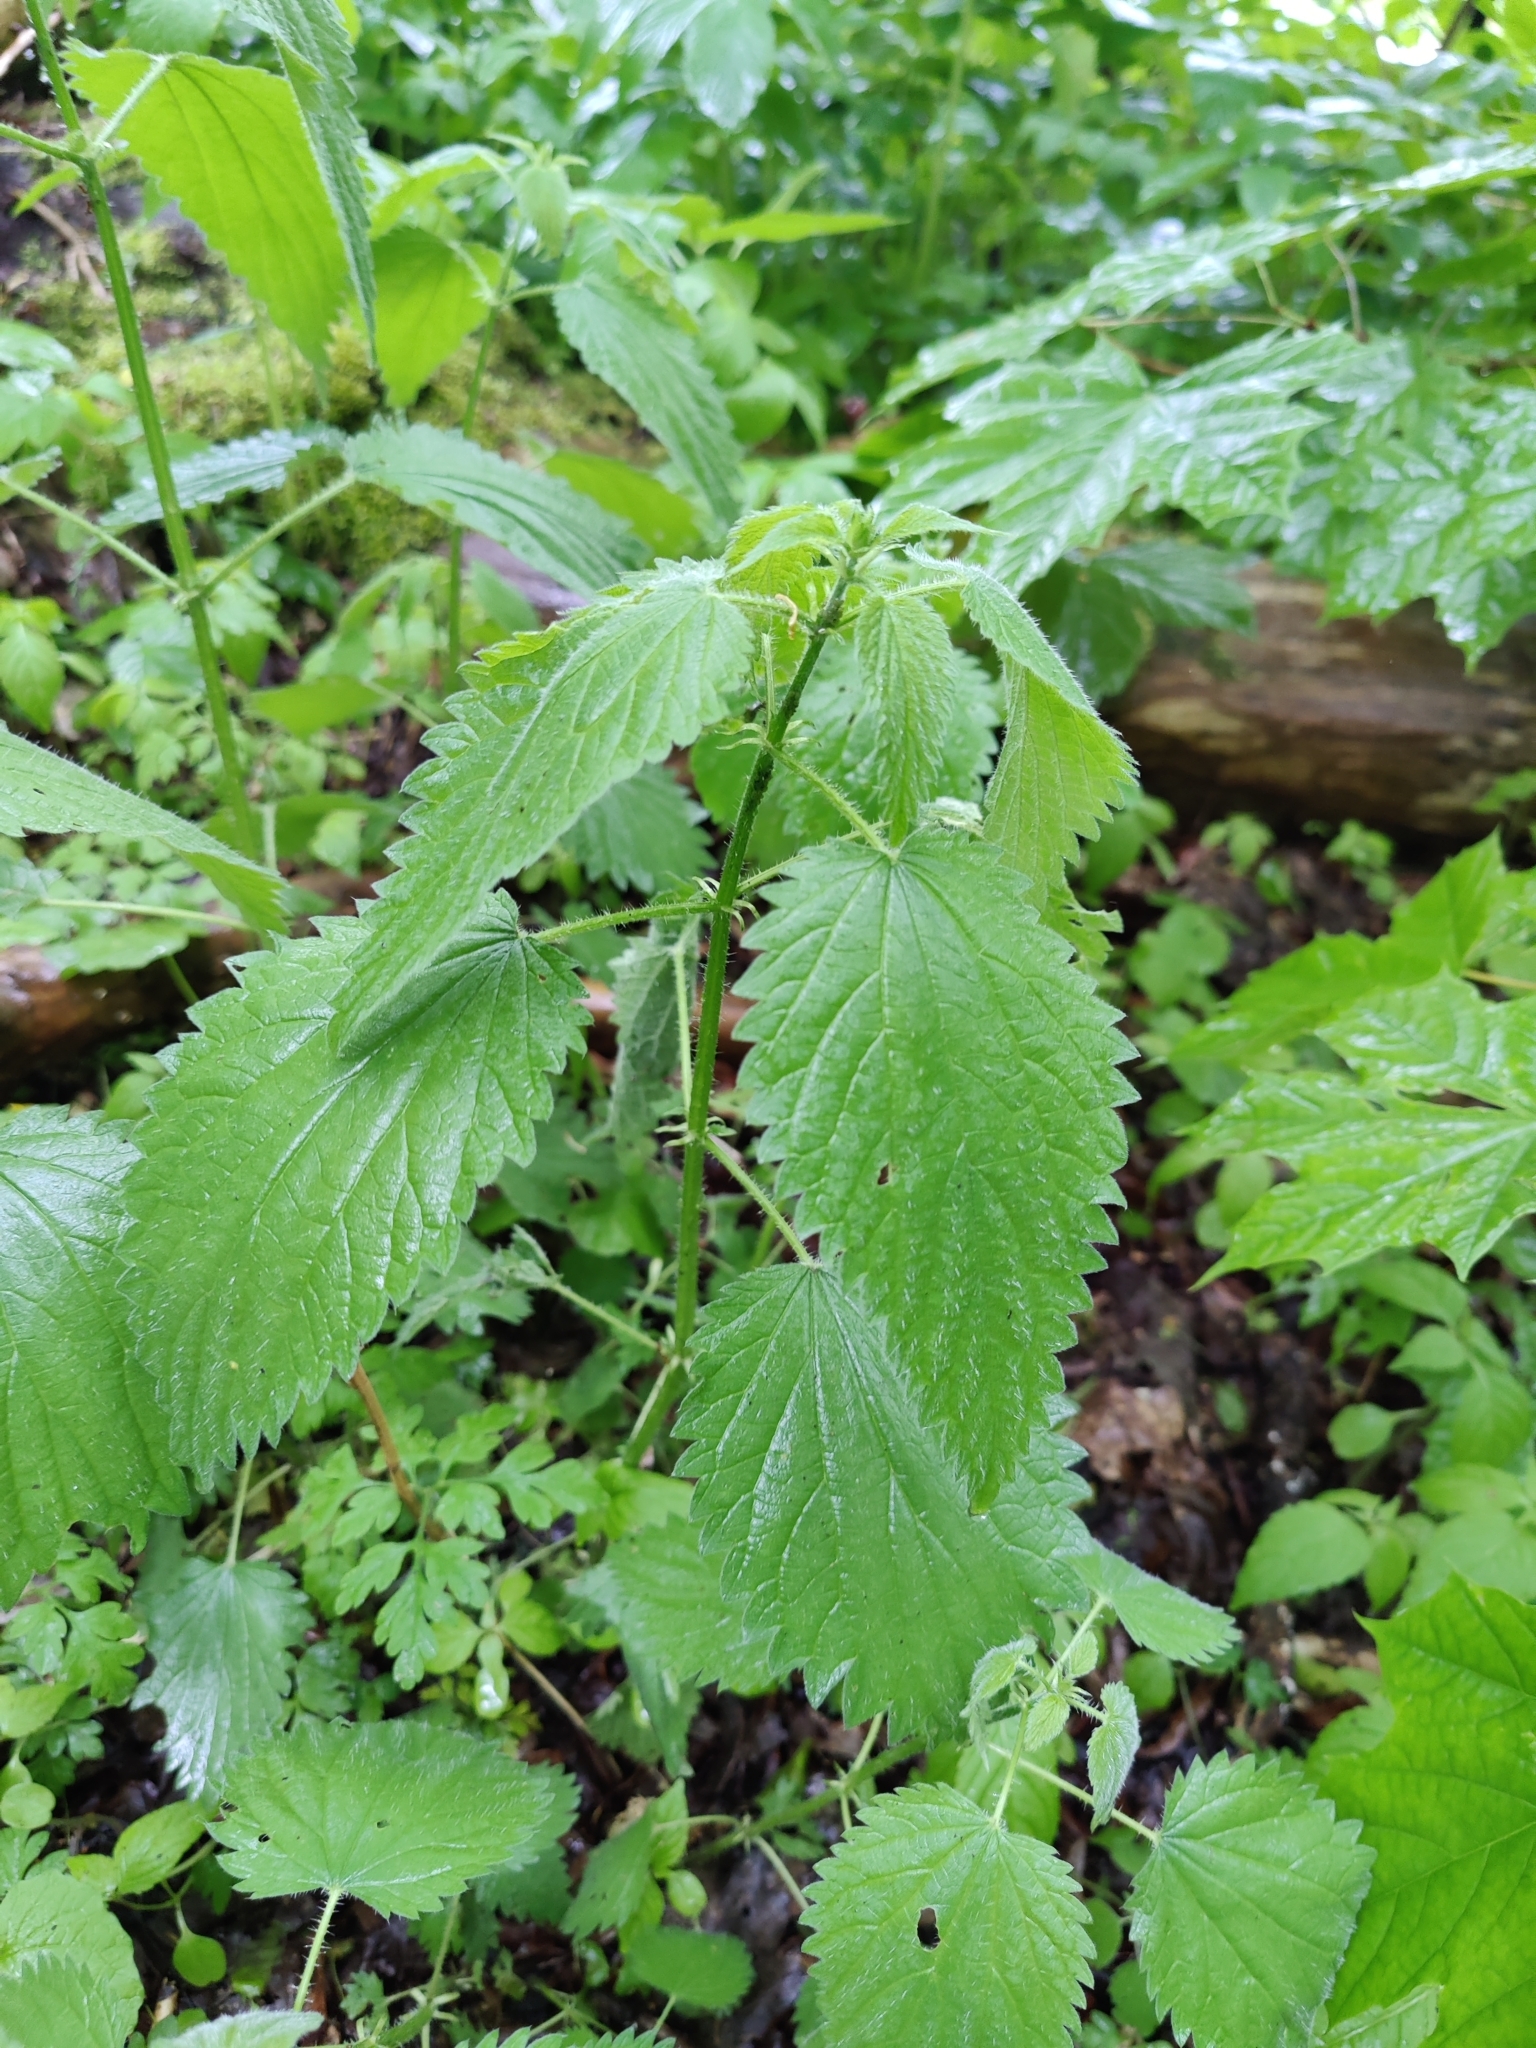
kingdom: Plantae
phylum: Tracheophyta
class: Magnoliopsida
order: Rosales
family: Urticaceae
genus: Urtica
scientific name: Urtica dioica
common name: Common nettle
